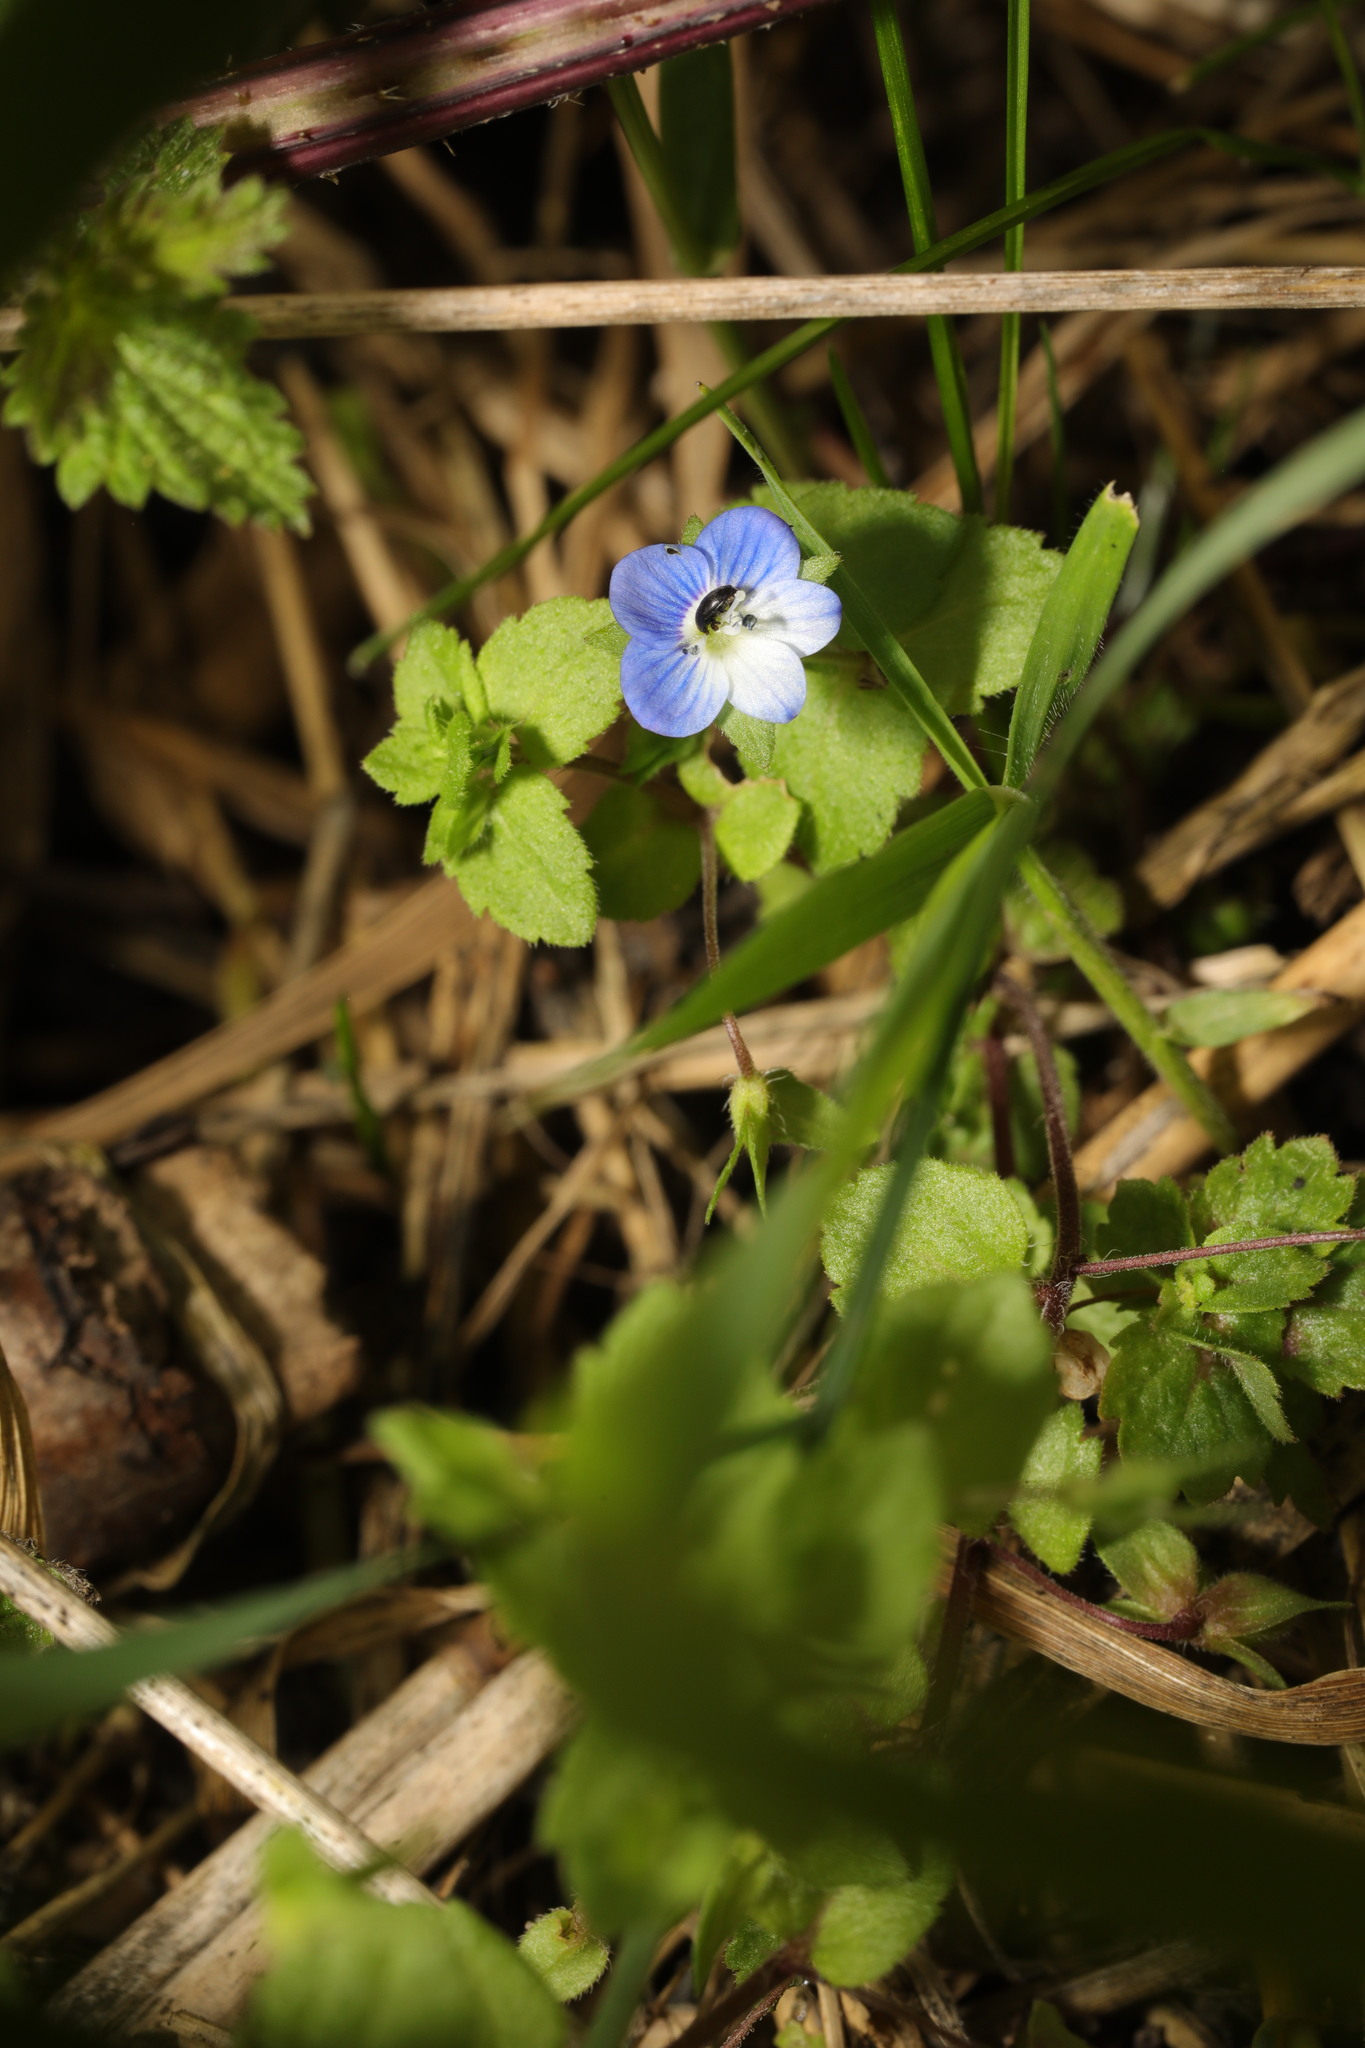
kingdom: Plantae
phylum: Tracheophyta
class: Magnoliopsida
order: Lamiales
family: Plantaginaceae
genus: Veronica
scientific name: Veronica persica
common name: Common field-speedwell
